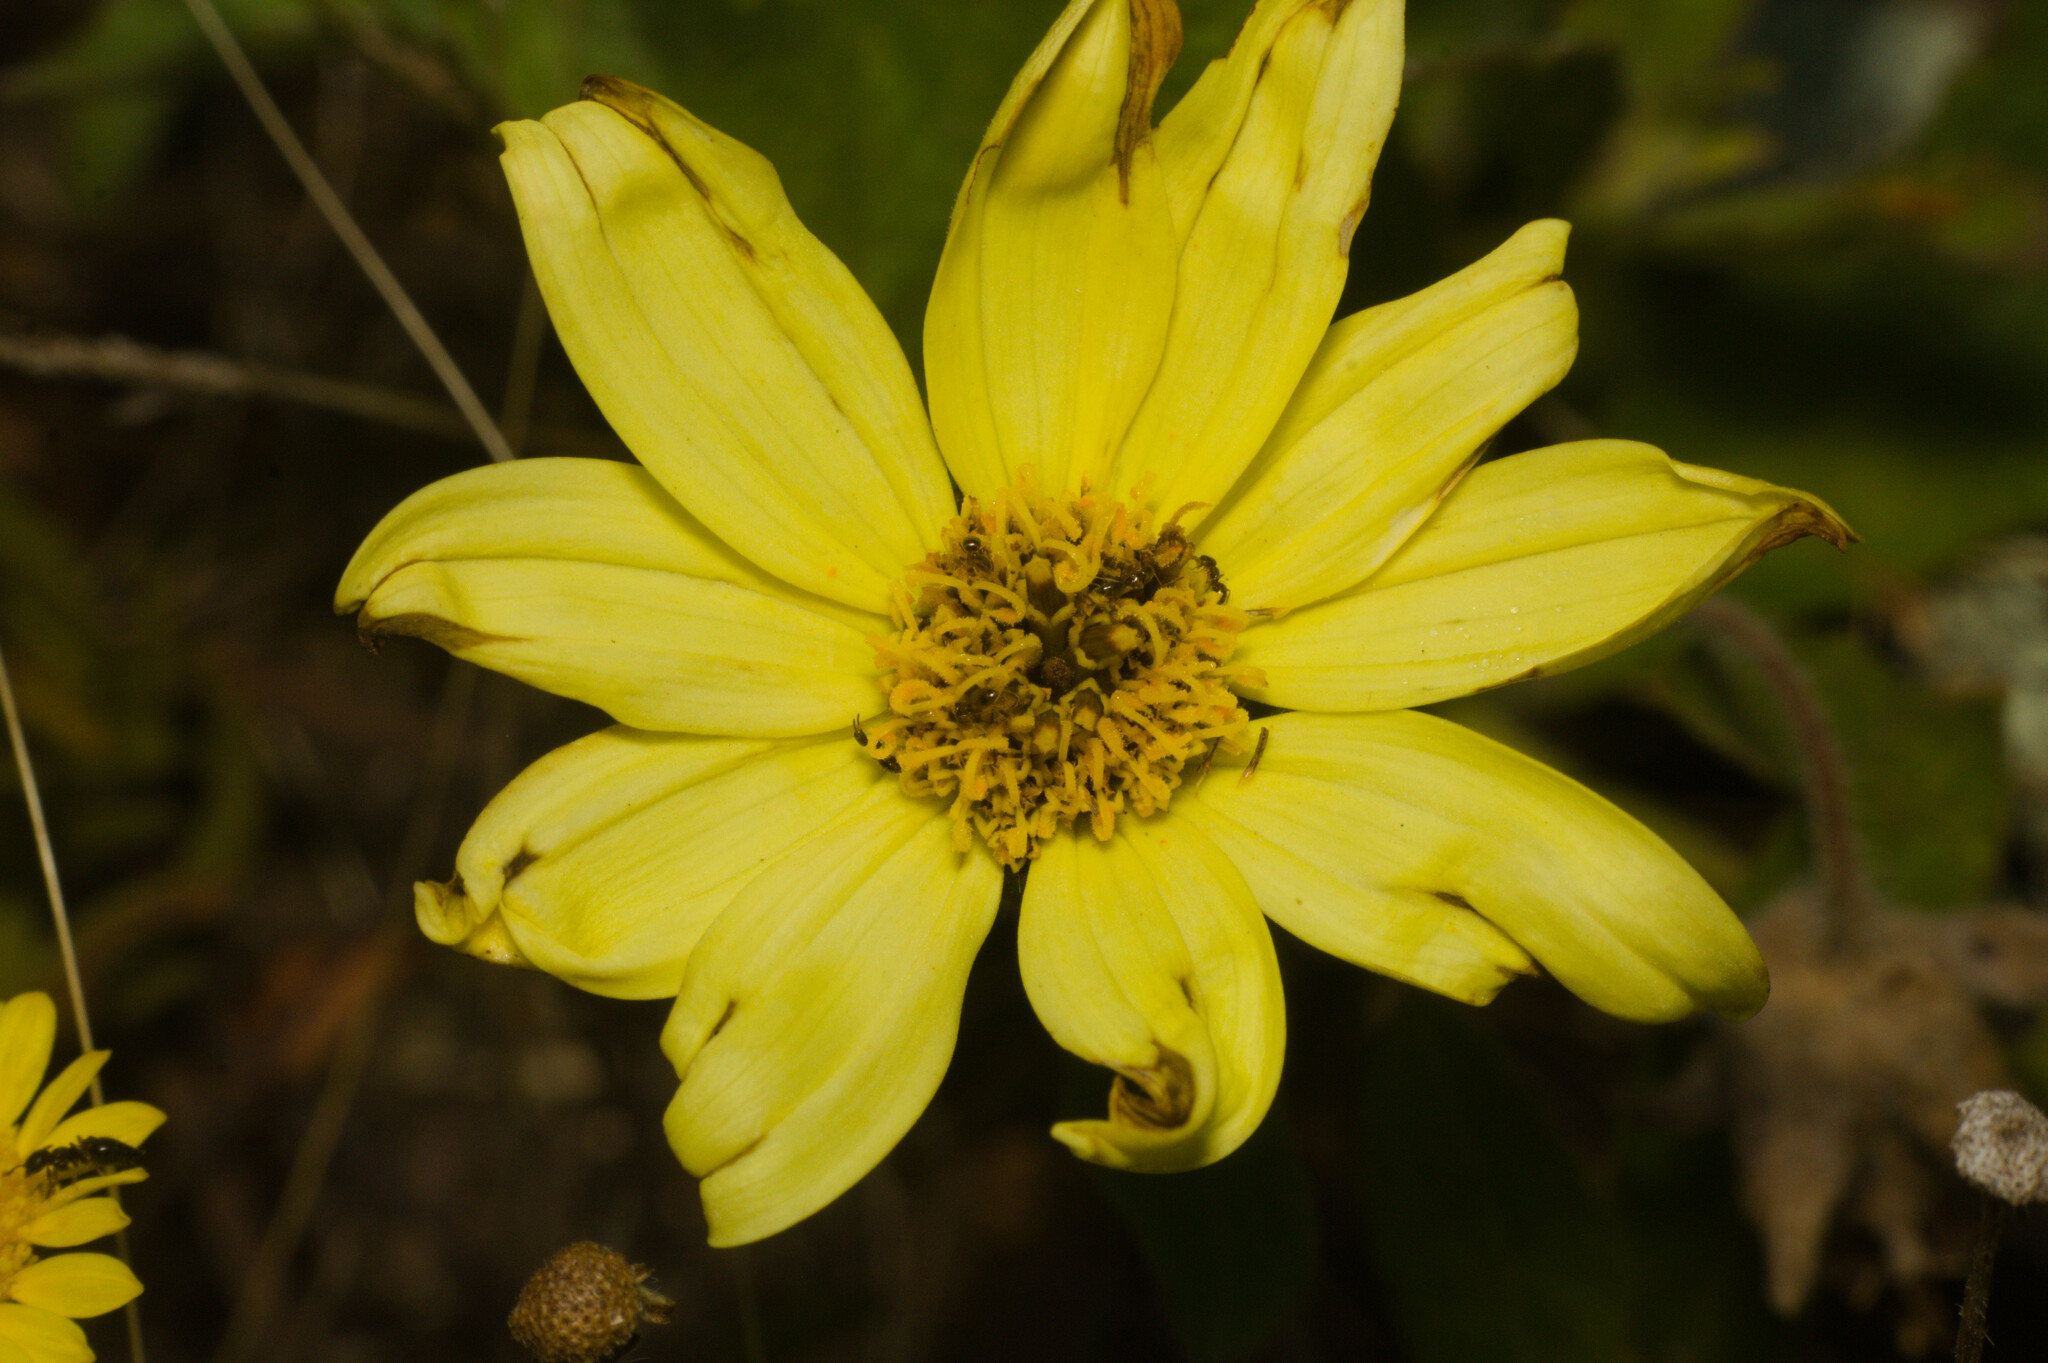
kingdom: Plantae
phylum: Tracheophyta
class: Magnoliopsida
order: Asterales
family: Asteraceae
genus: Wedelia
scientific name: Wedelia montevidensis
